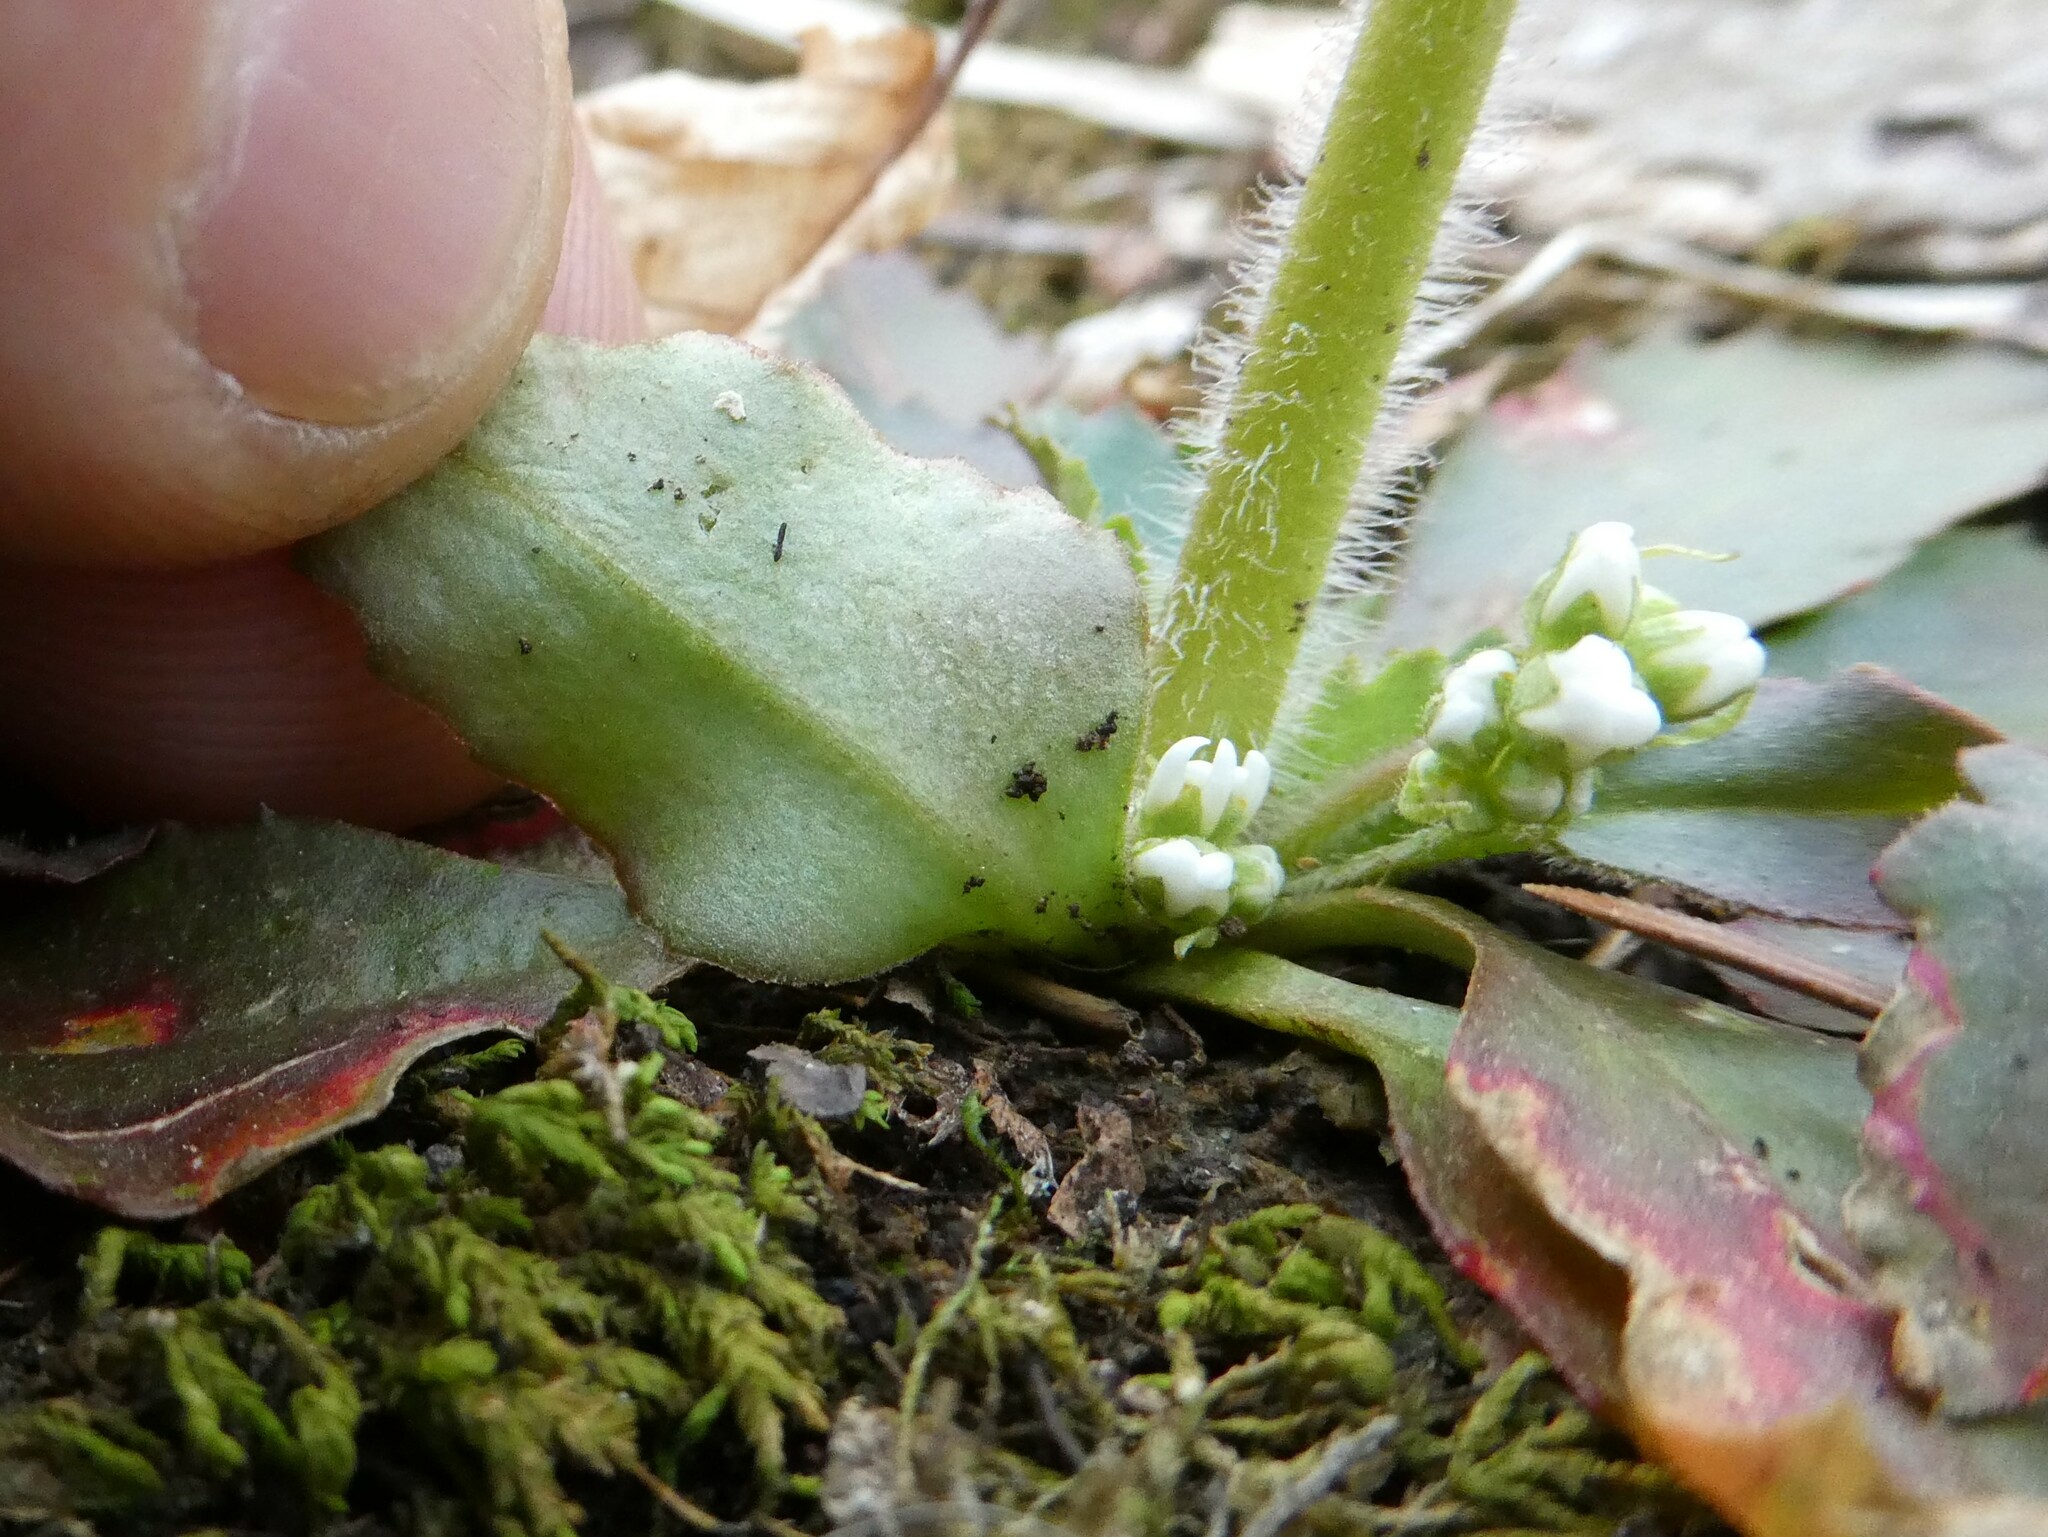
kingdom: Plantae
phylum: Tracheophyta
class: Magnoliopsida
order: Saxifragales
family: Saxifragaceae
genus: Micranthes
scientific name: Micranthes virginiensis
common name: Early saxifrage
